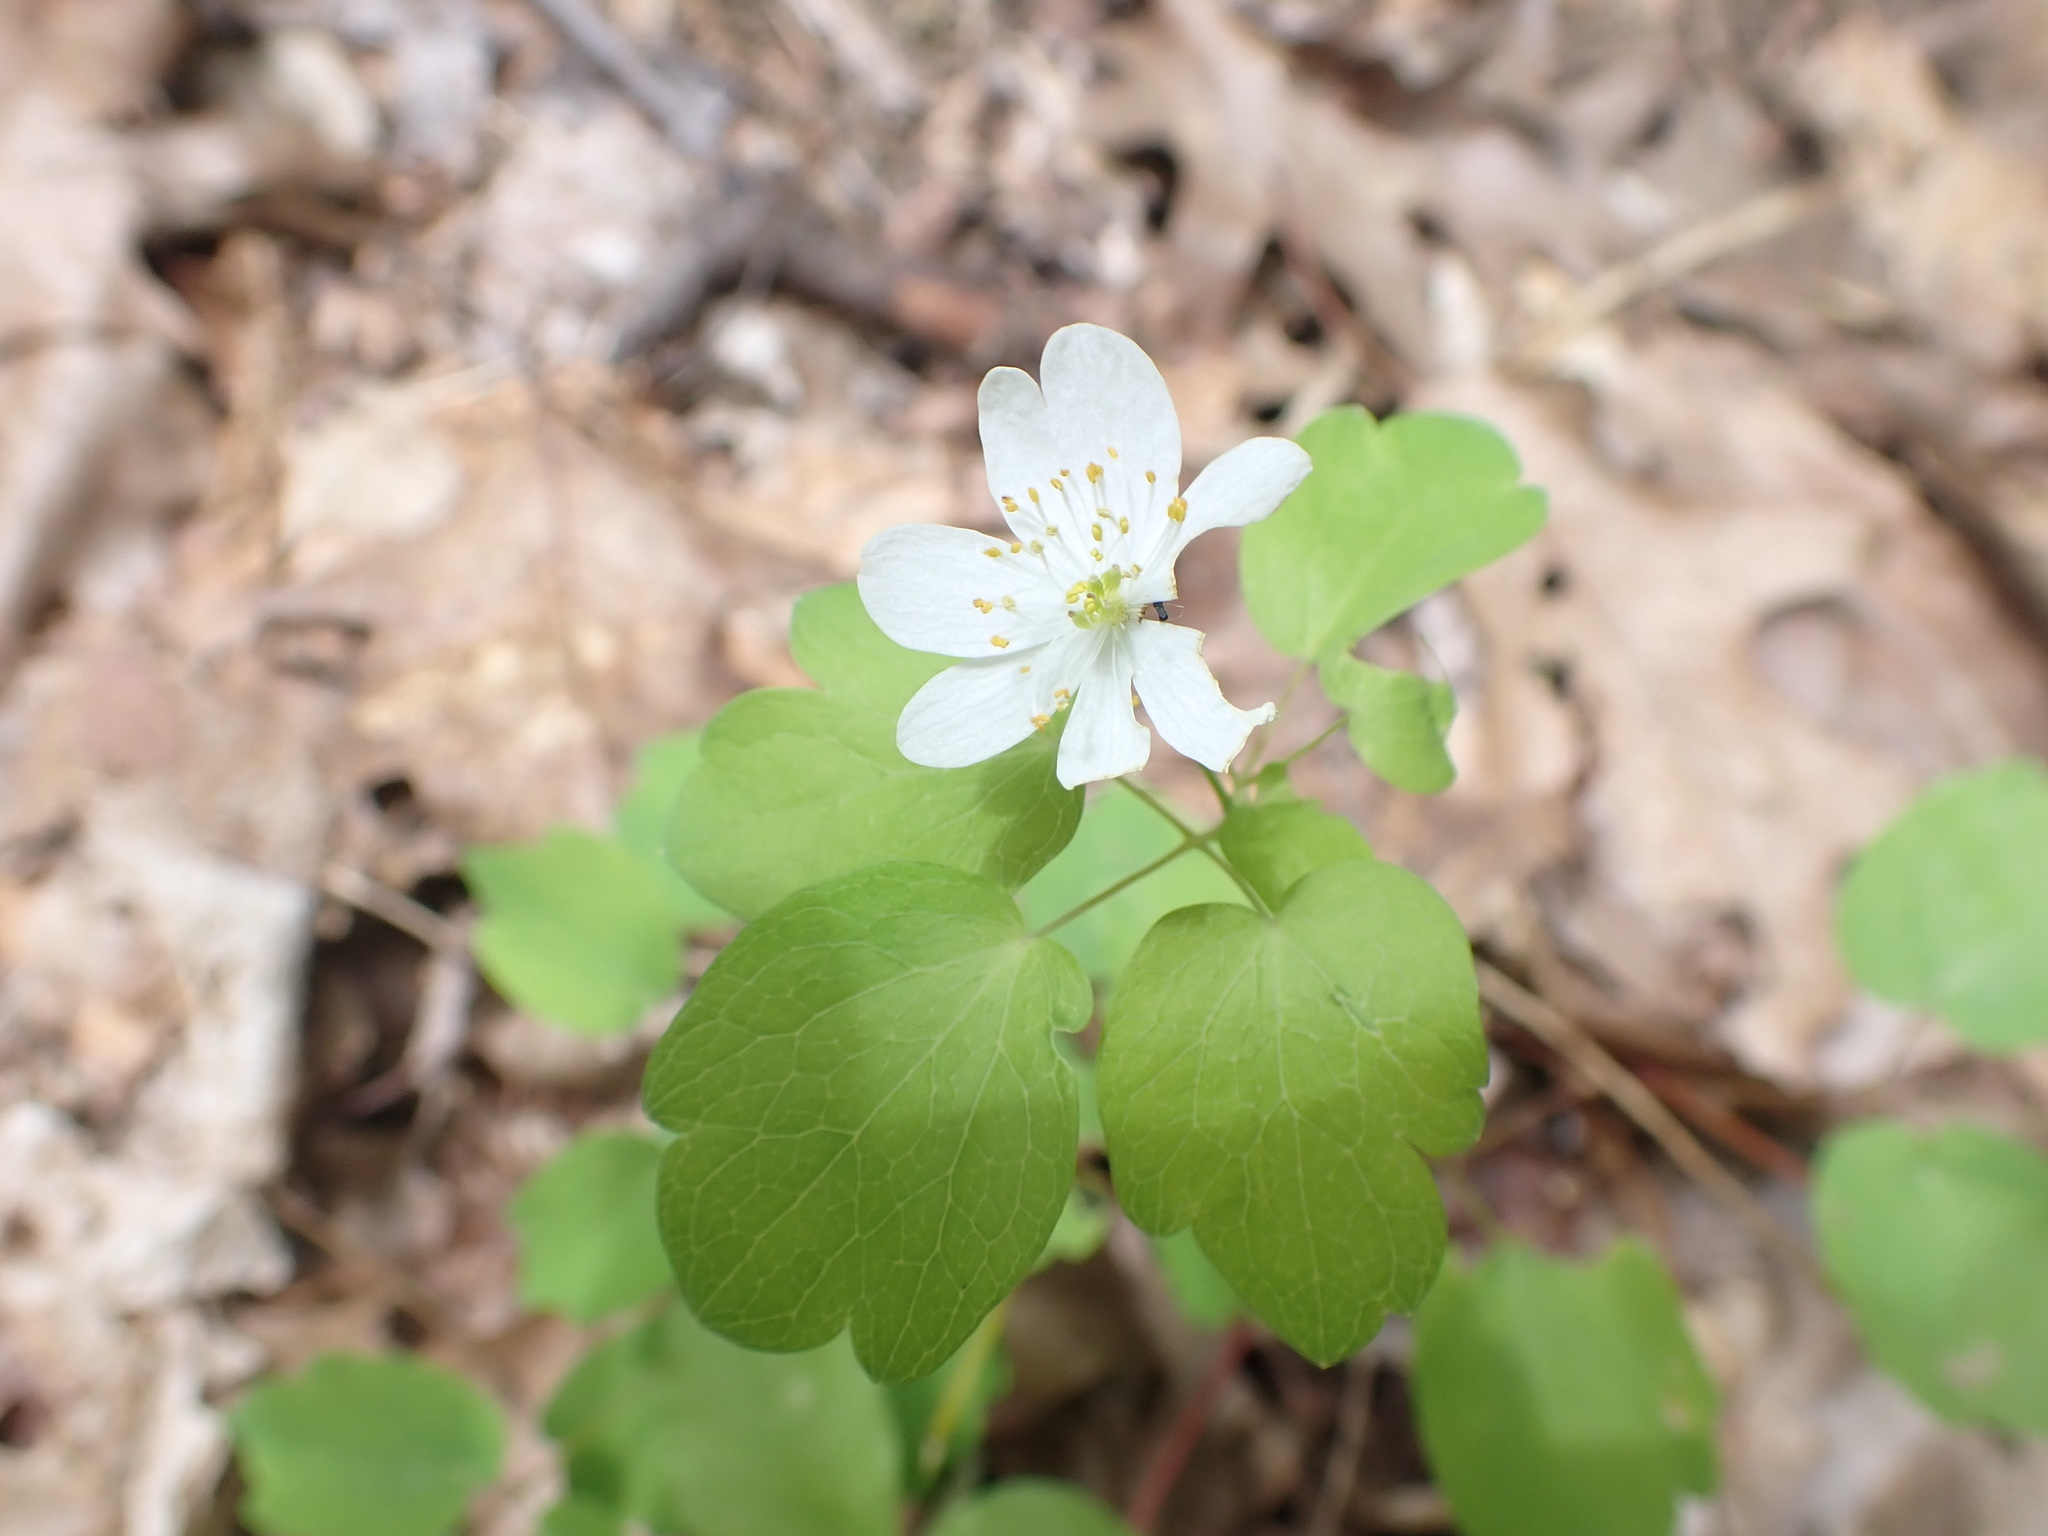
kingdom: Plantae
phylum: Tracheophyta
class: Magnoliopsida
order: Ranunculales
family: Ranunculaceae
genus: Thalictrum
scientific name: Thalictrum thalictroides
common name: Rue-anemone
